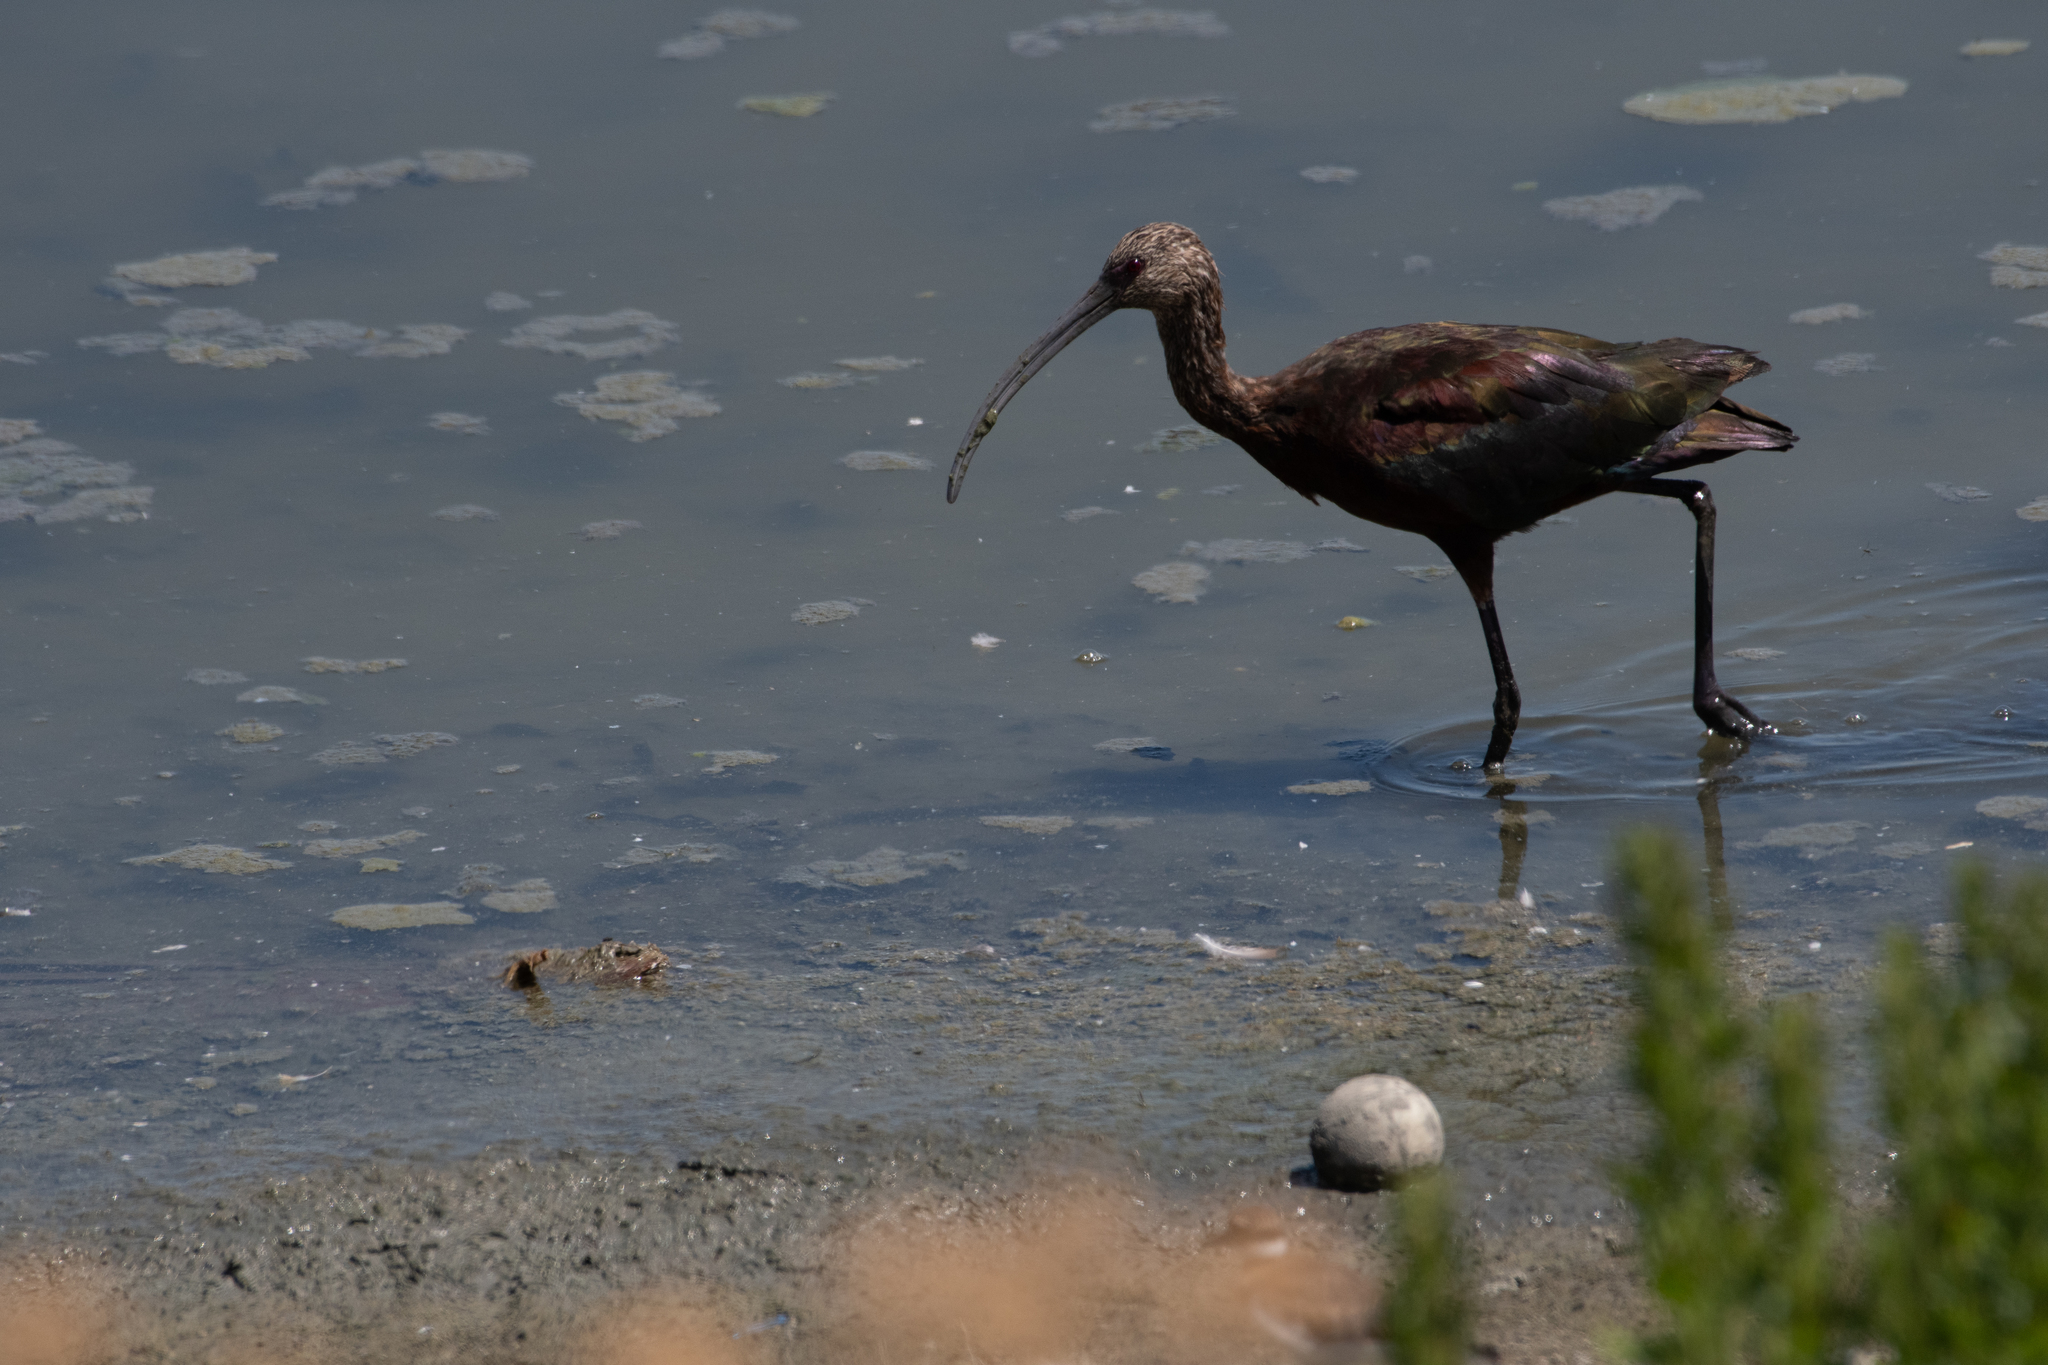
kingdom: Animalia
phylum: Chordata
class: Aves
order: Pelecaniformes
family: Threskiornithidae
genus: Plegadis
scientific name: Plegadis chihi
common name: White-faced ibis
